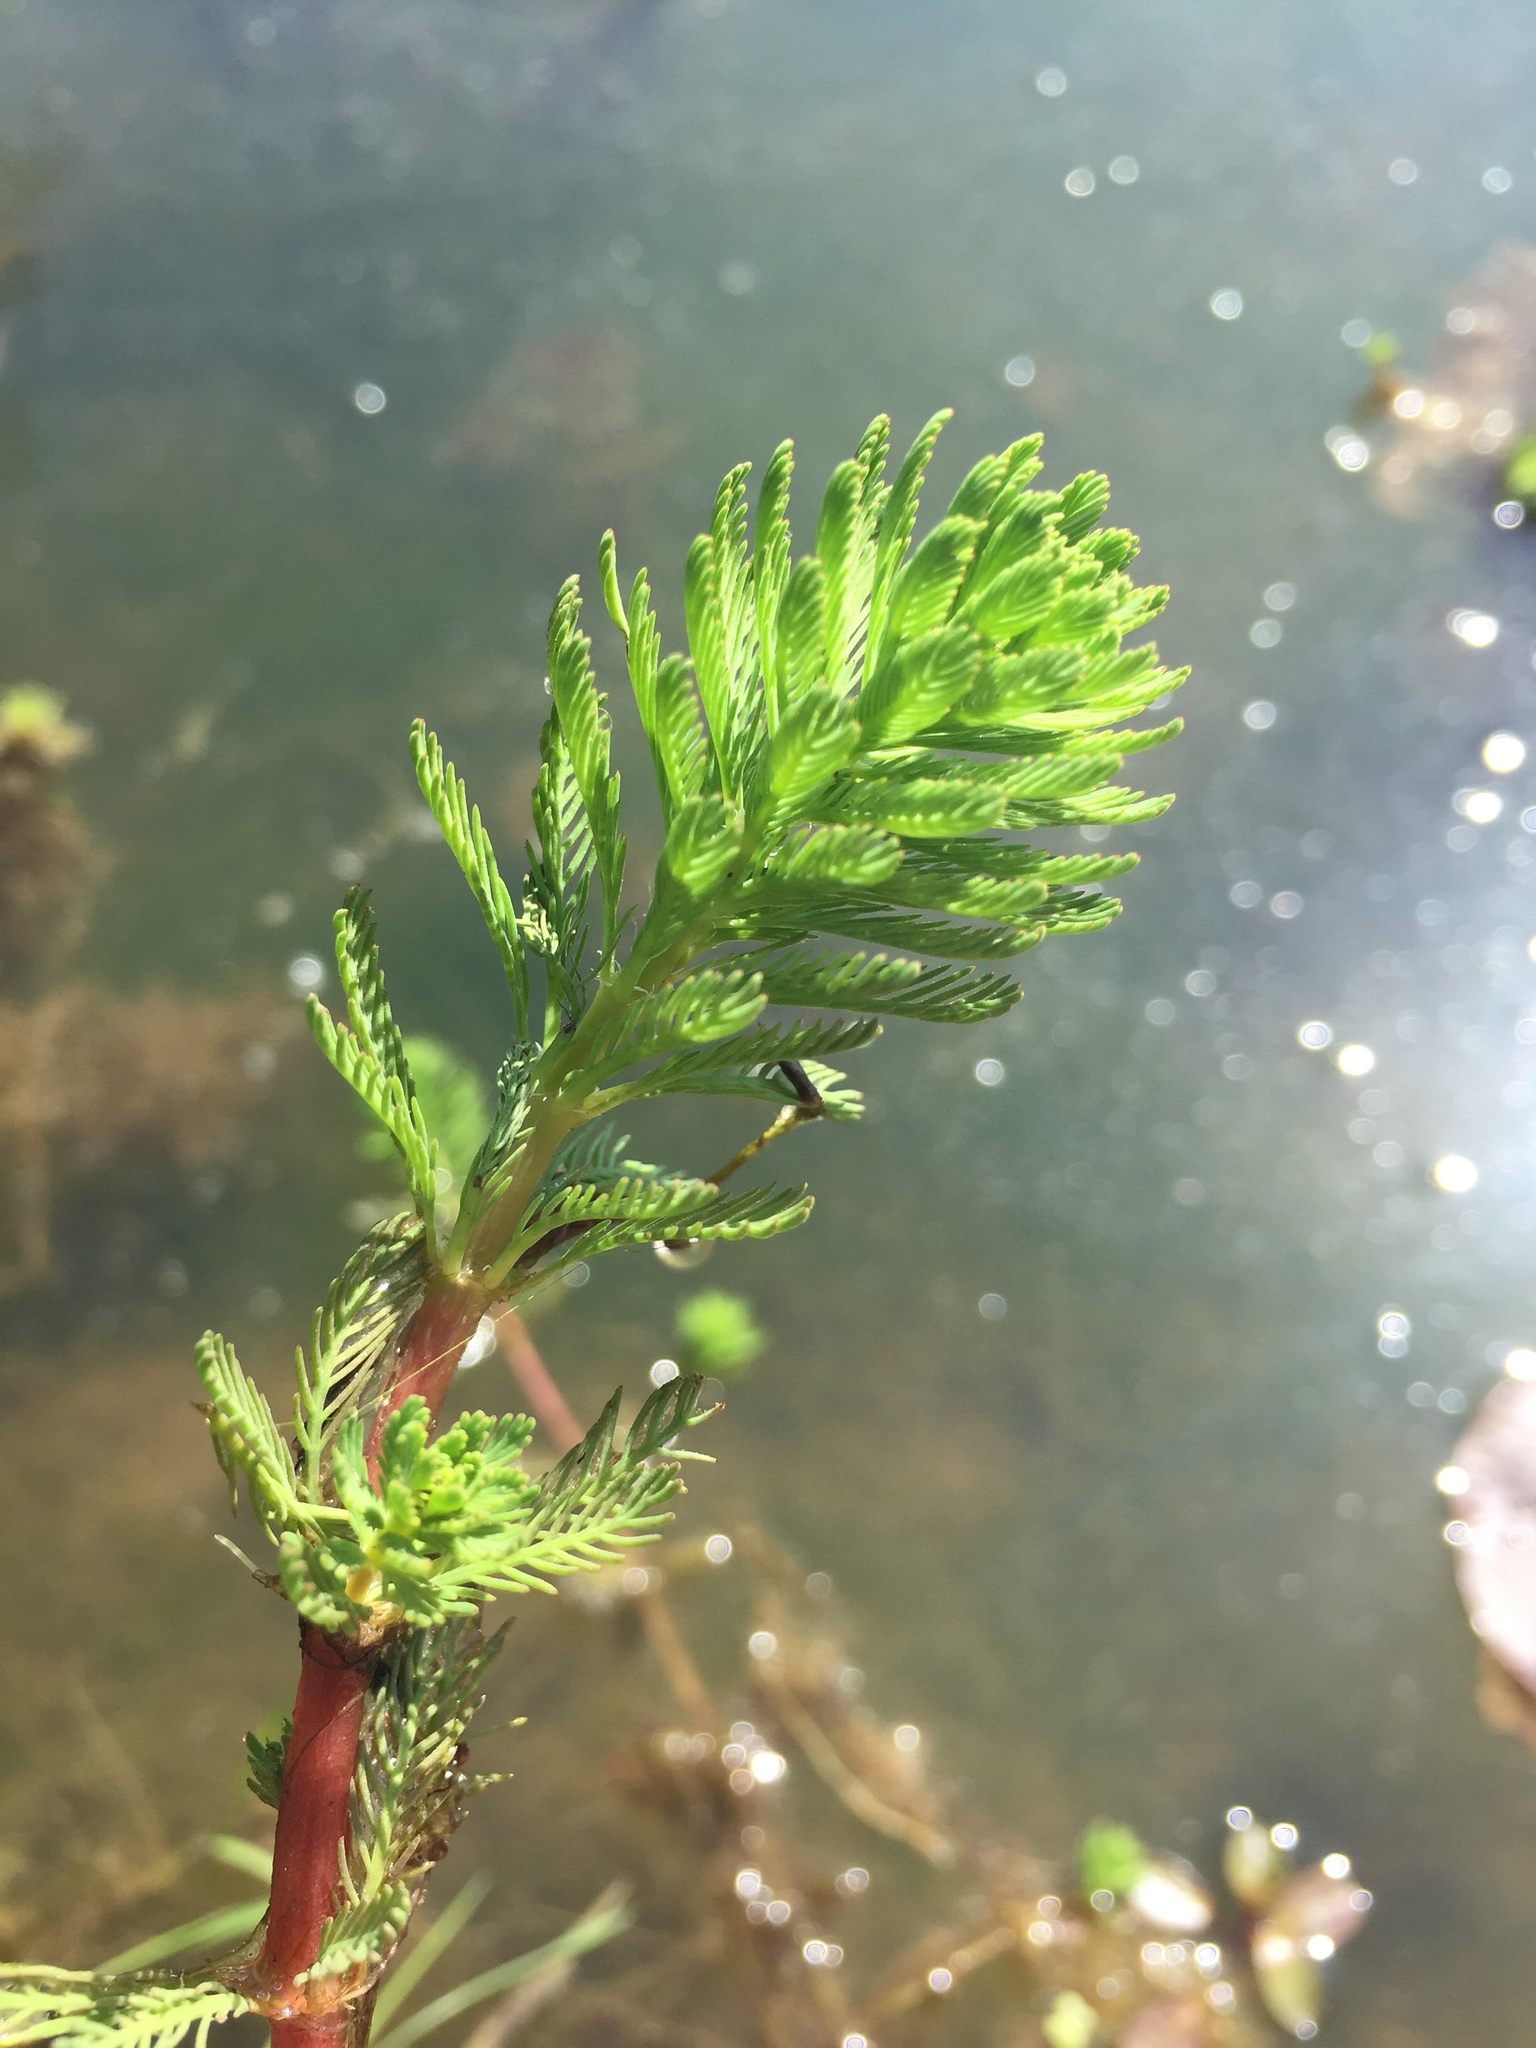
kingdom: Plantae
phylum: Tracheophyta
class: Magnoliopsida
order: Saxifragales
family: Haloragaceae
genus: Myriophyllum
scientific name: Myriophyllum aquaticum
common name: Parrot's feather
